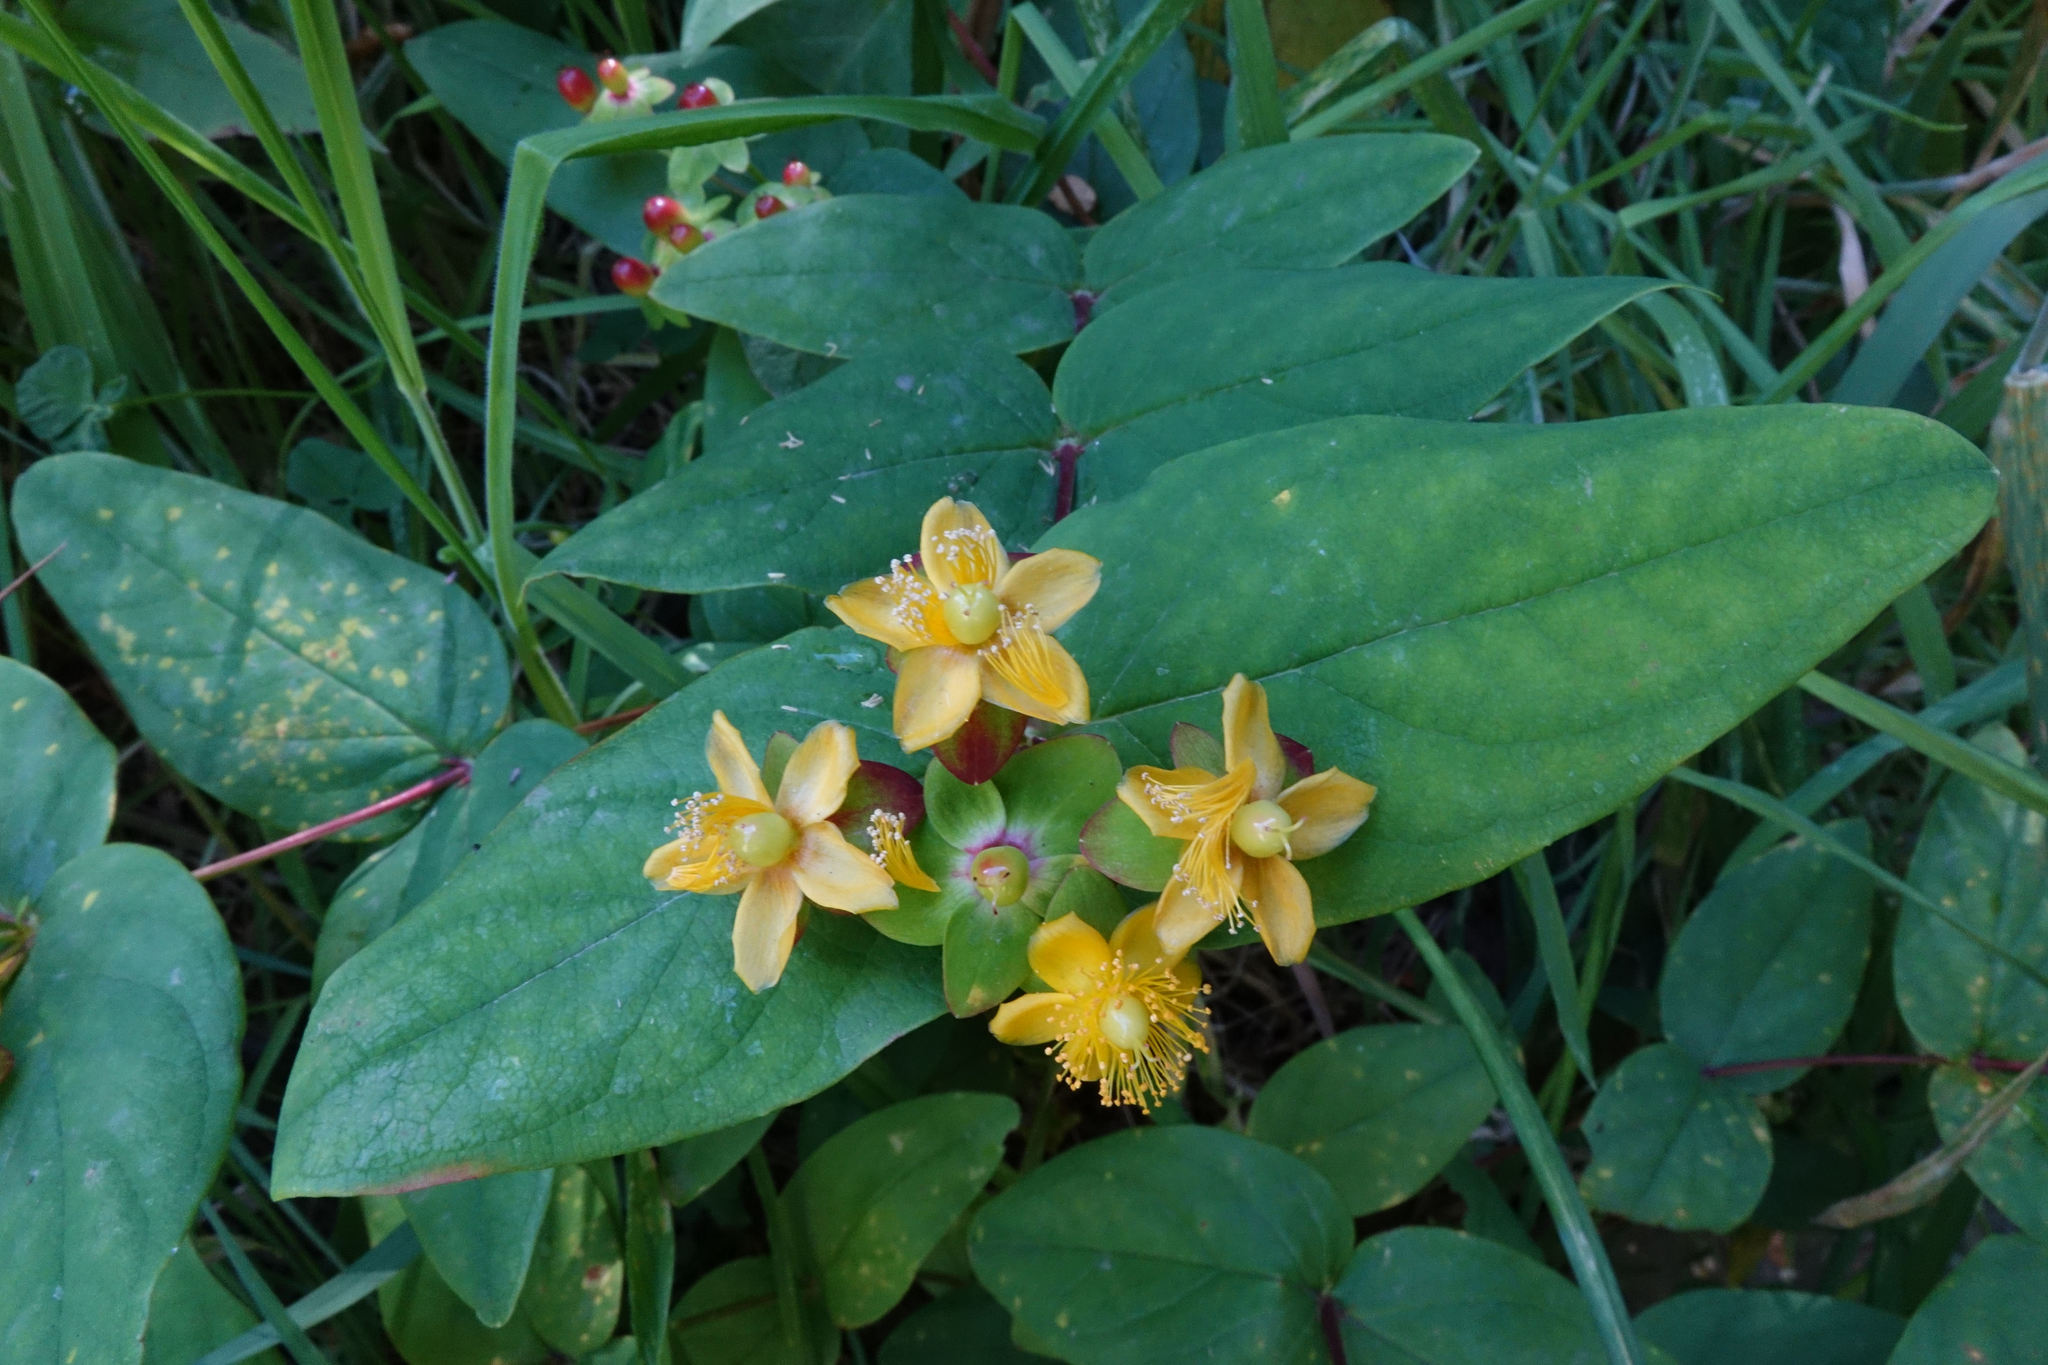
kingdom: Plantae
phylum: Tracheophyta
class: Magnoliopsida
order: Malpighiales
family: Hypericaceae
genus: Hypericum
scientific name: Hypericum androsaemum
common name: Sweet-amber
